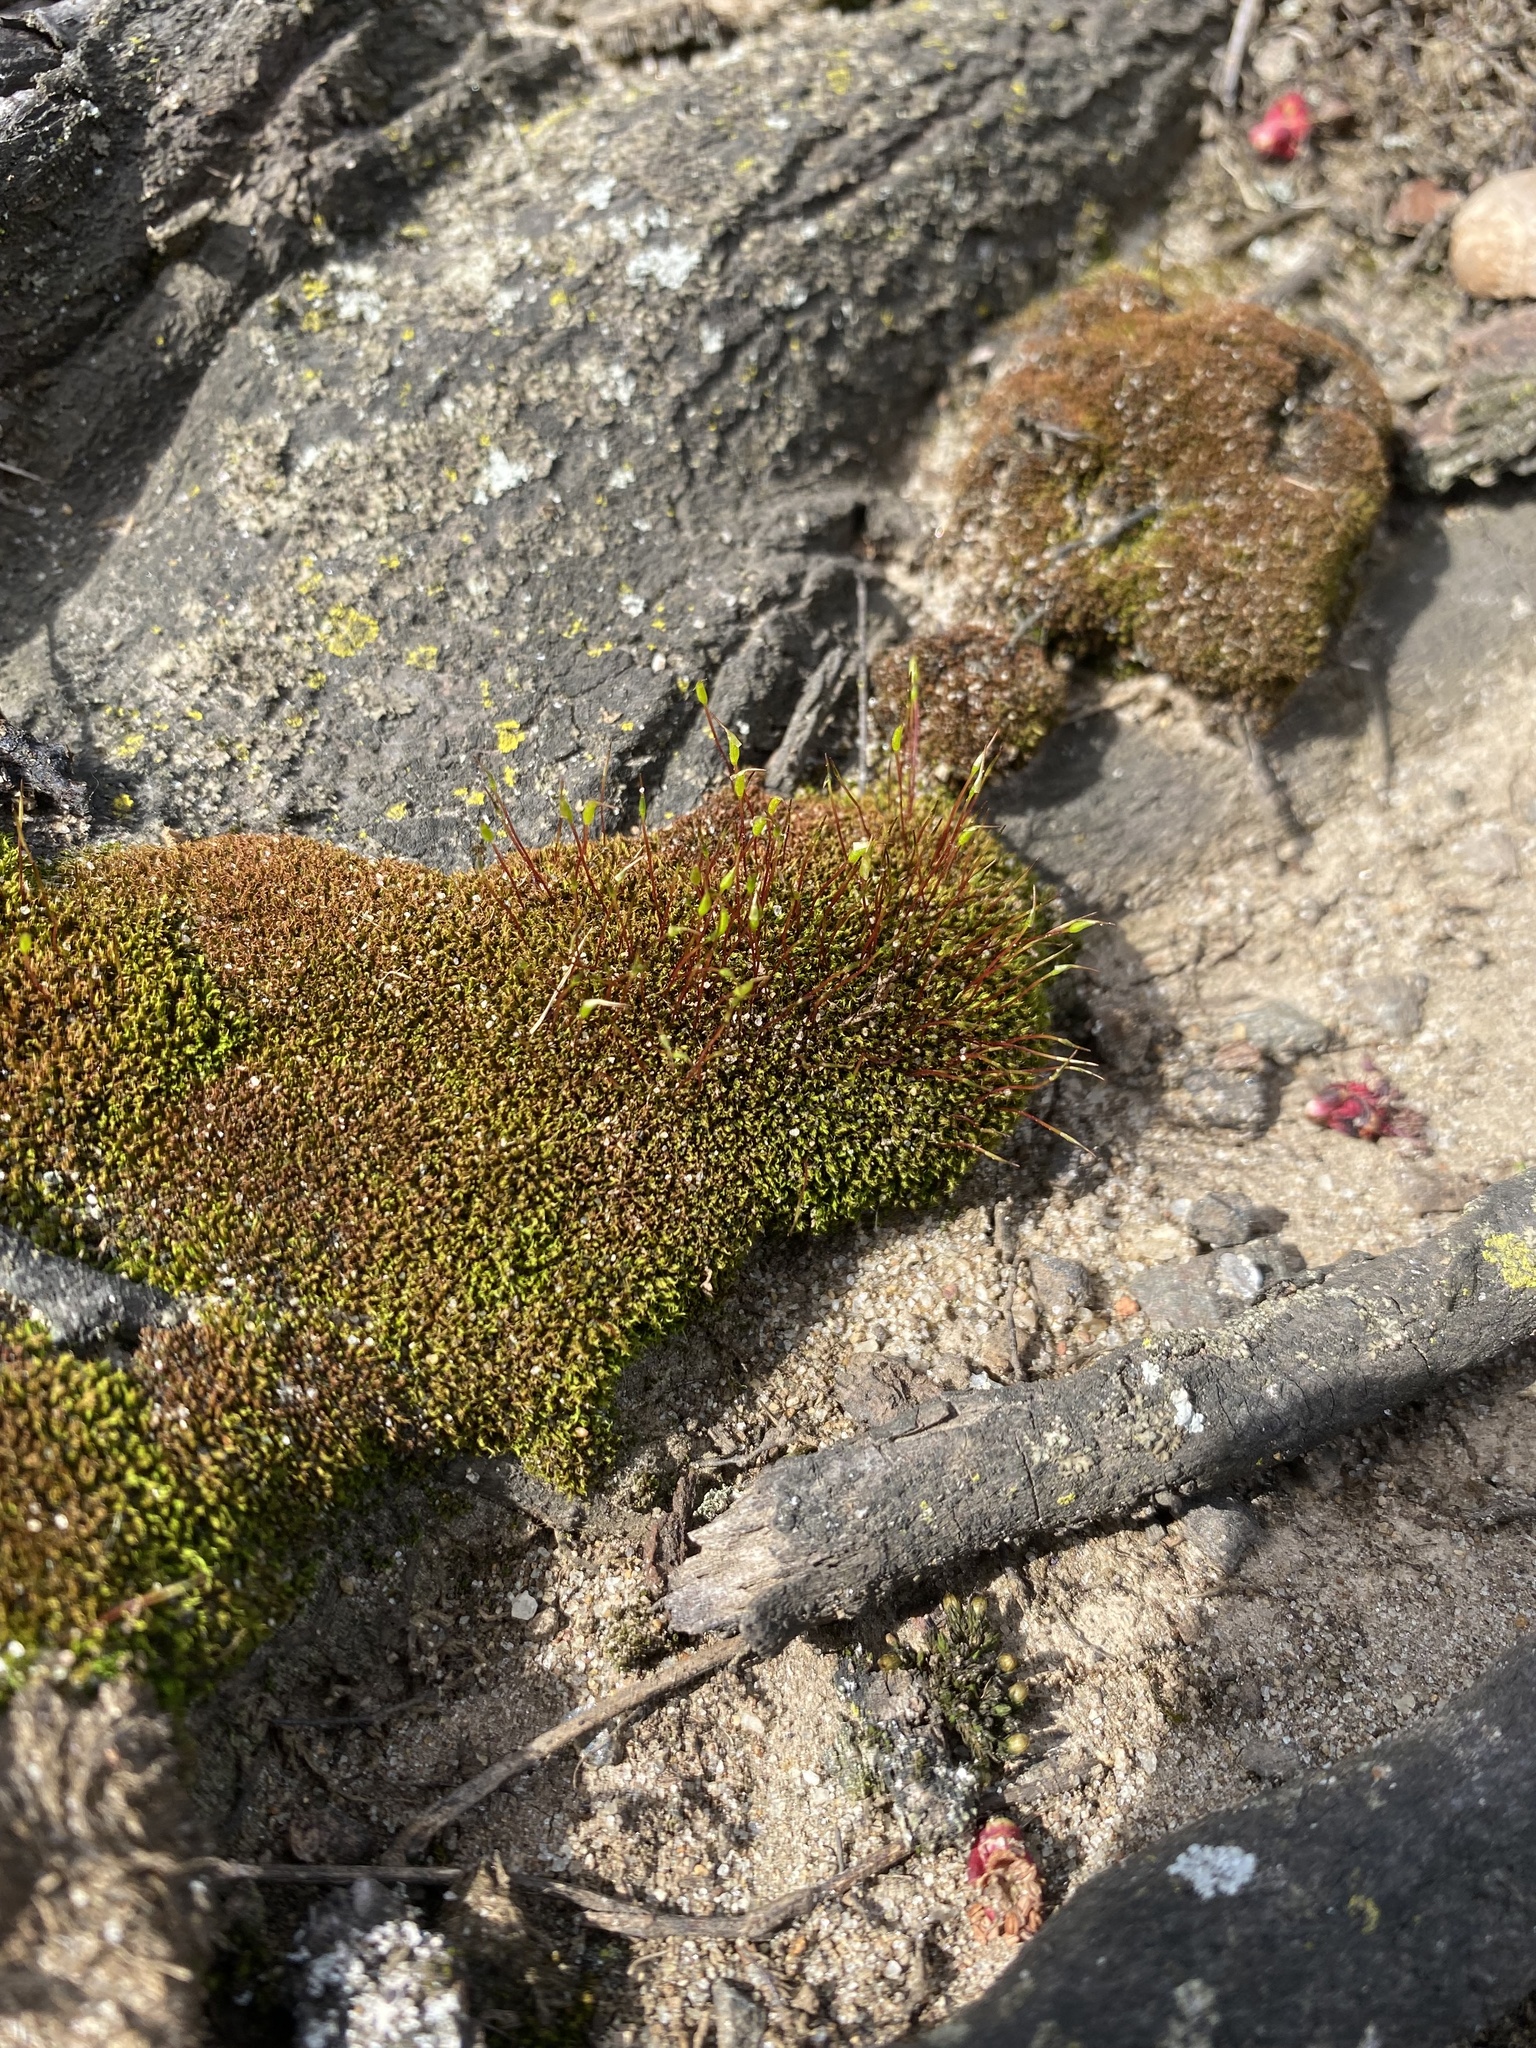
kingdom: Plantae
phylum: Bryophyta
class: Bryopsida
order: Dicranales
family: Ditrichaceae
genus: Ceratodon
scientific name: Ceratodon purpureus
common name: Redshank
